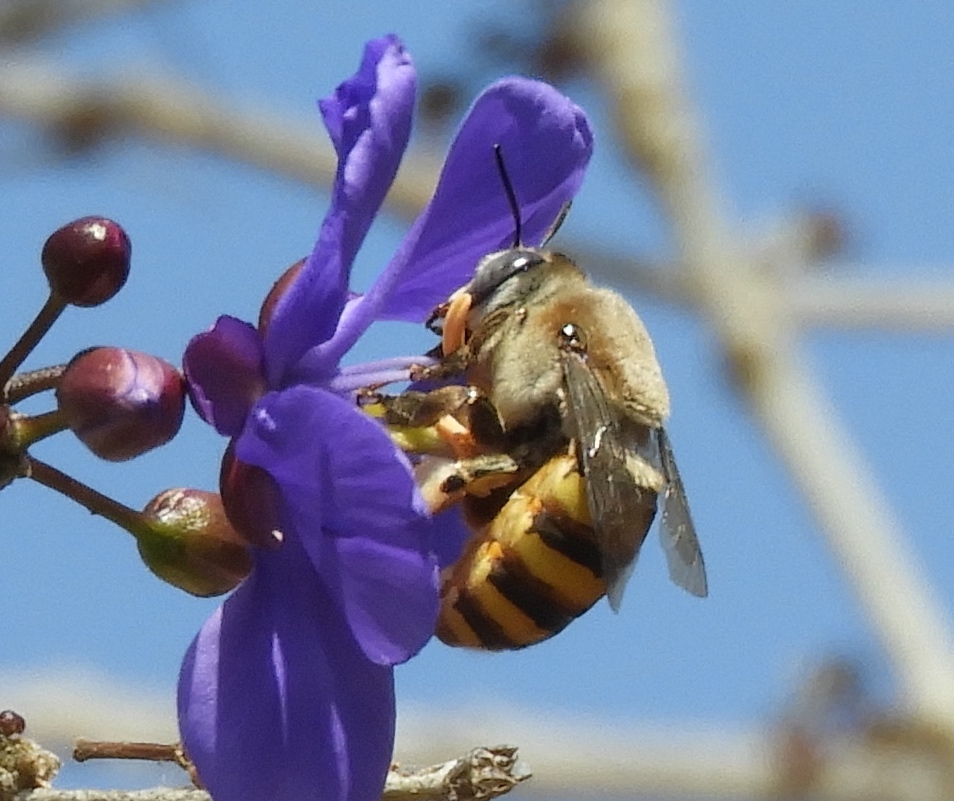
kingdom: Animalia
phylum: Arthropoda
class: Insecta
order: Hymenoptera
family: Apidae
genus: Centris
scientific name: Centris aethyctera
